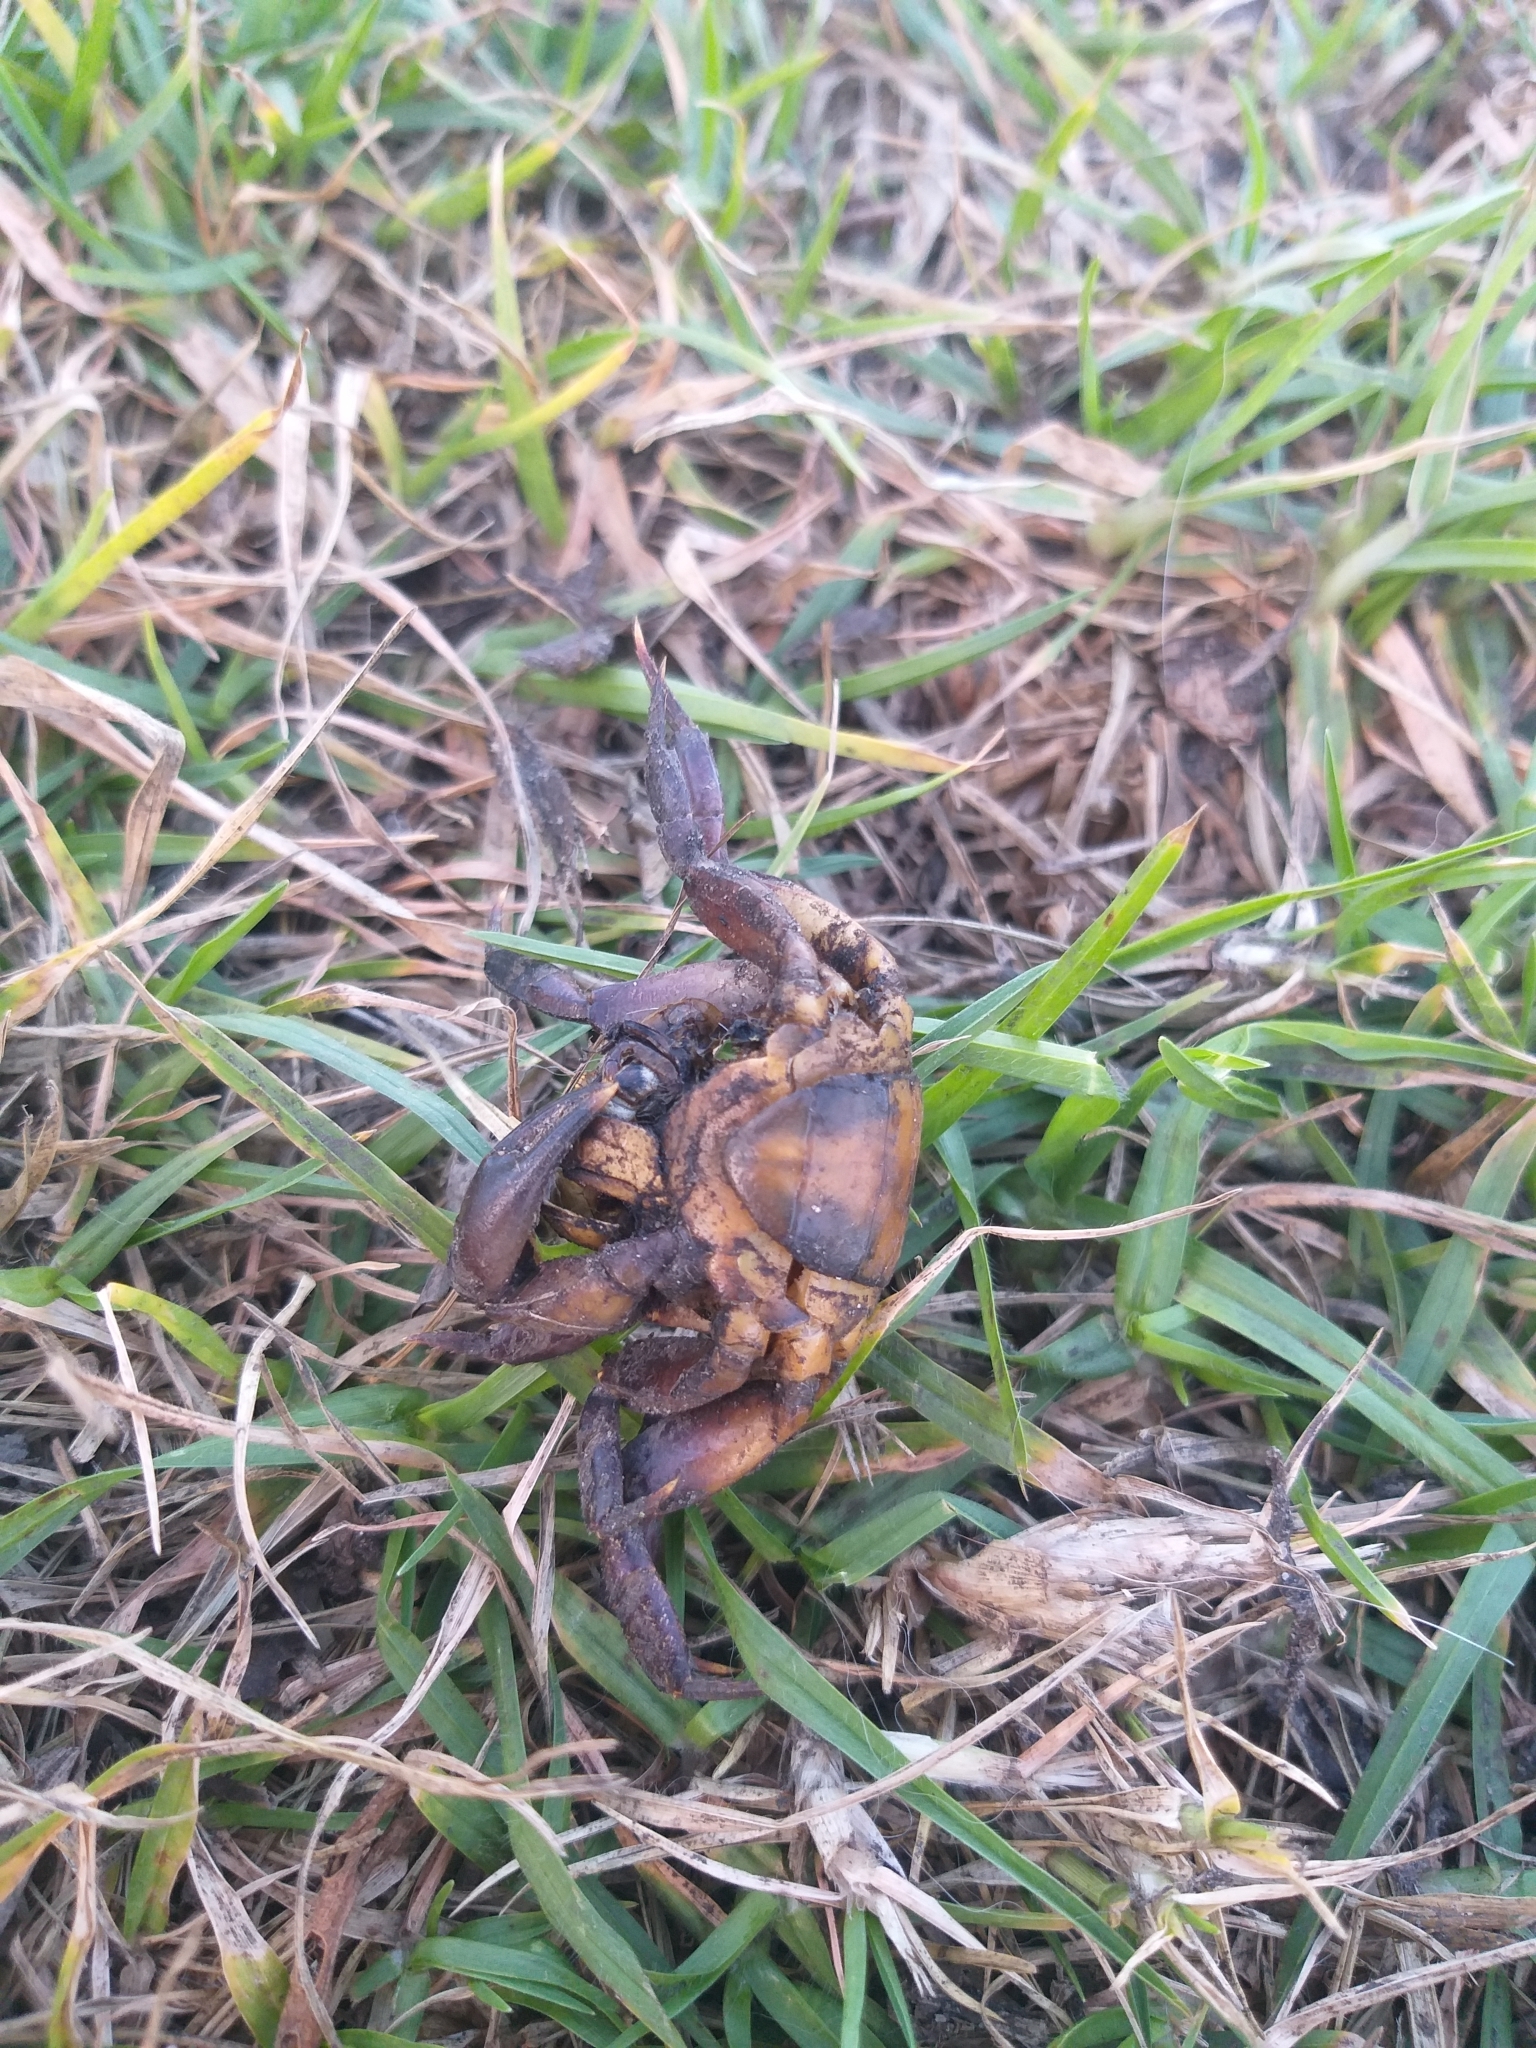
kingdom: Animalia
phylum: Arthropoda
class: Malacostraca
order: Decapoda
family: Potamonautidae
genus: Potamonautes
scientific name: Potamonautes perlatus
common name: Cape river crab
